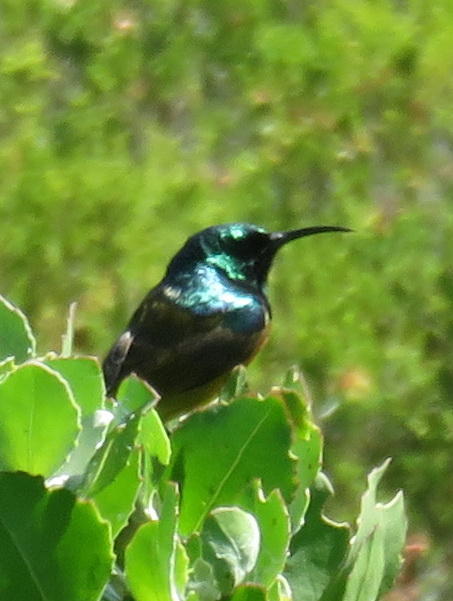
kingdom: Animalia
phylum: Chordata
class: Aves
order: Passeriformes
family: Nectariniidae
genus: Anthobaphes
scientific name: Anthobaphes violacea
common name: Orange-breasted sunbird
